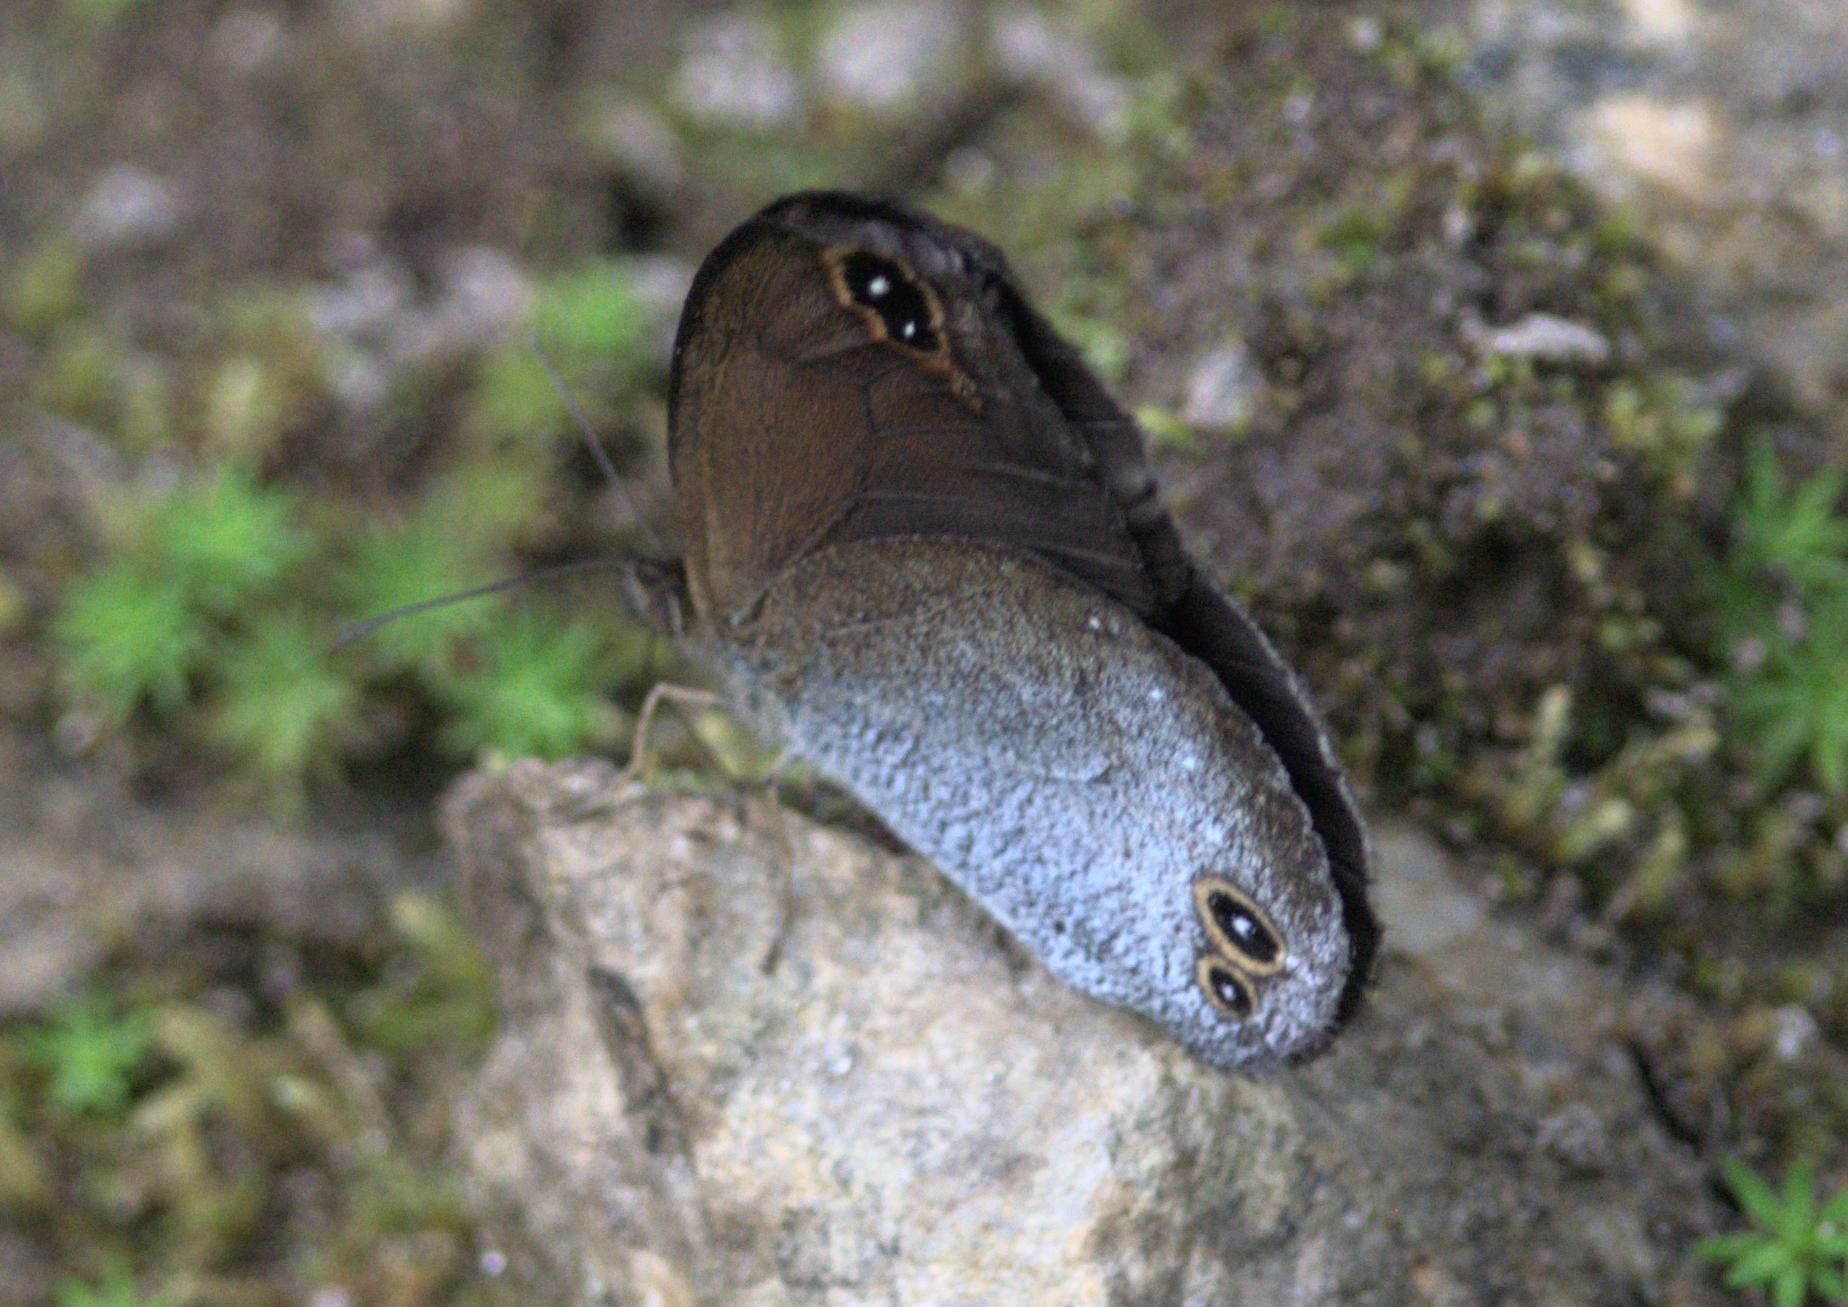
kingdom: Animalia
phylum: Arthropoda
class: Insecta
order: Lepidoptera
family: Nymphalidae
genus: Callerebia
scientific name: Callerebia scanda
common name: Pallid argus
